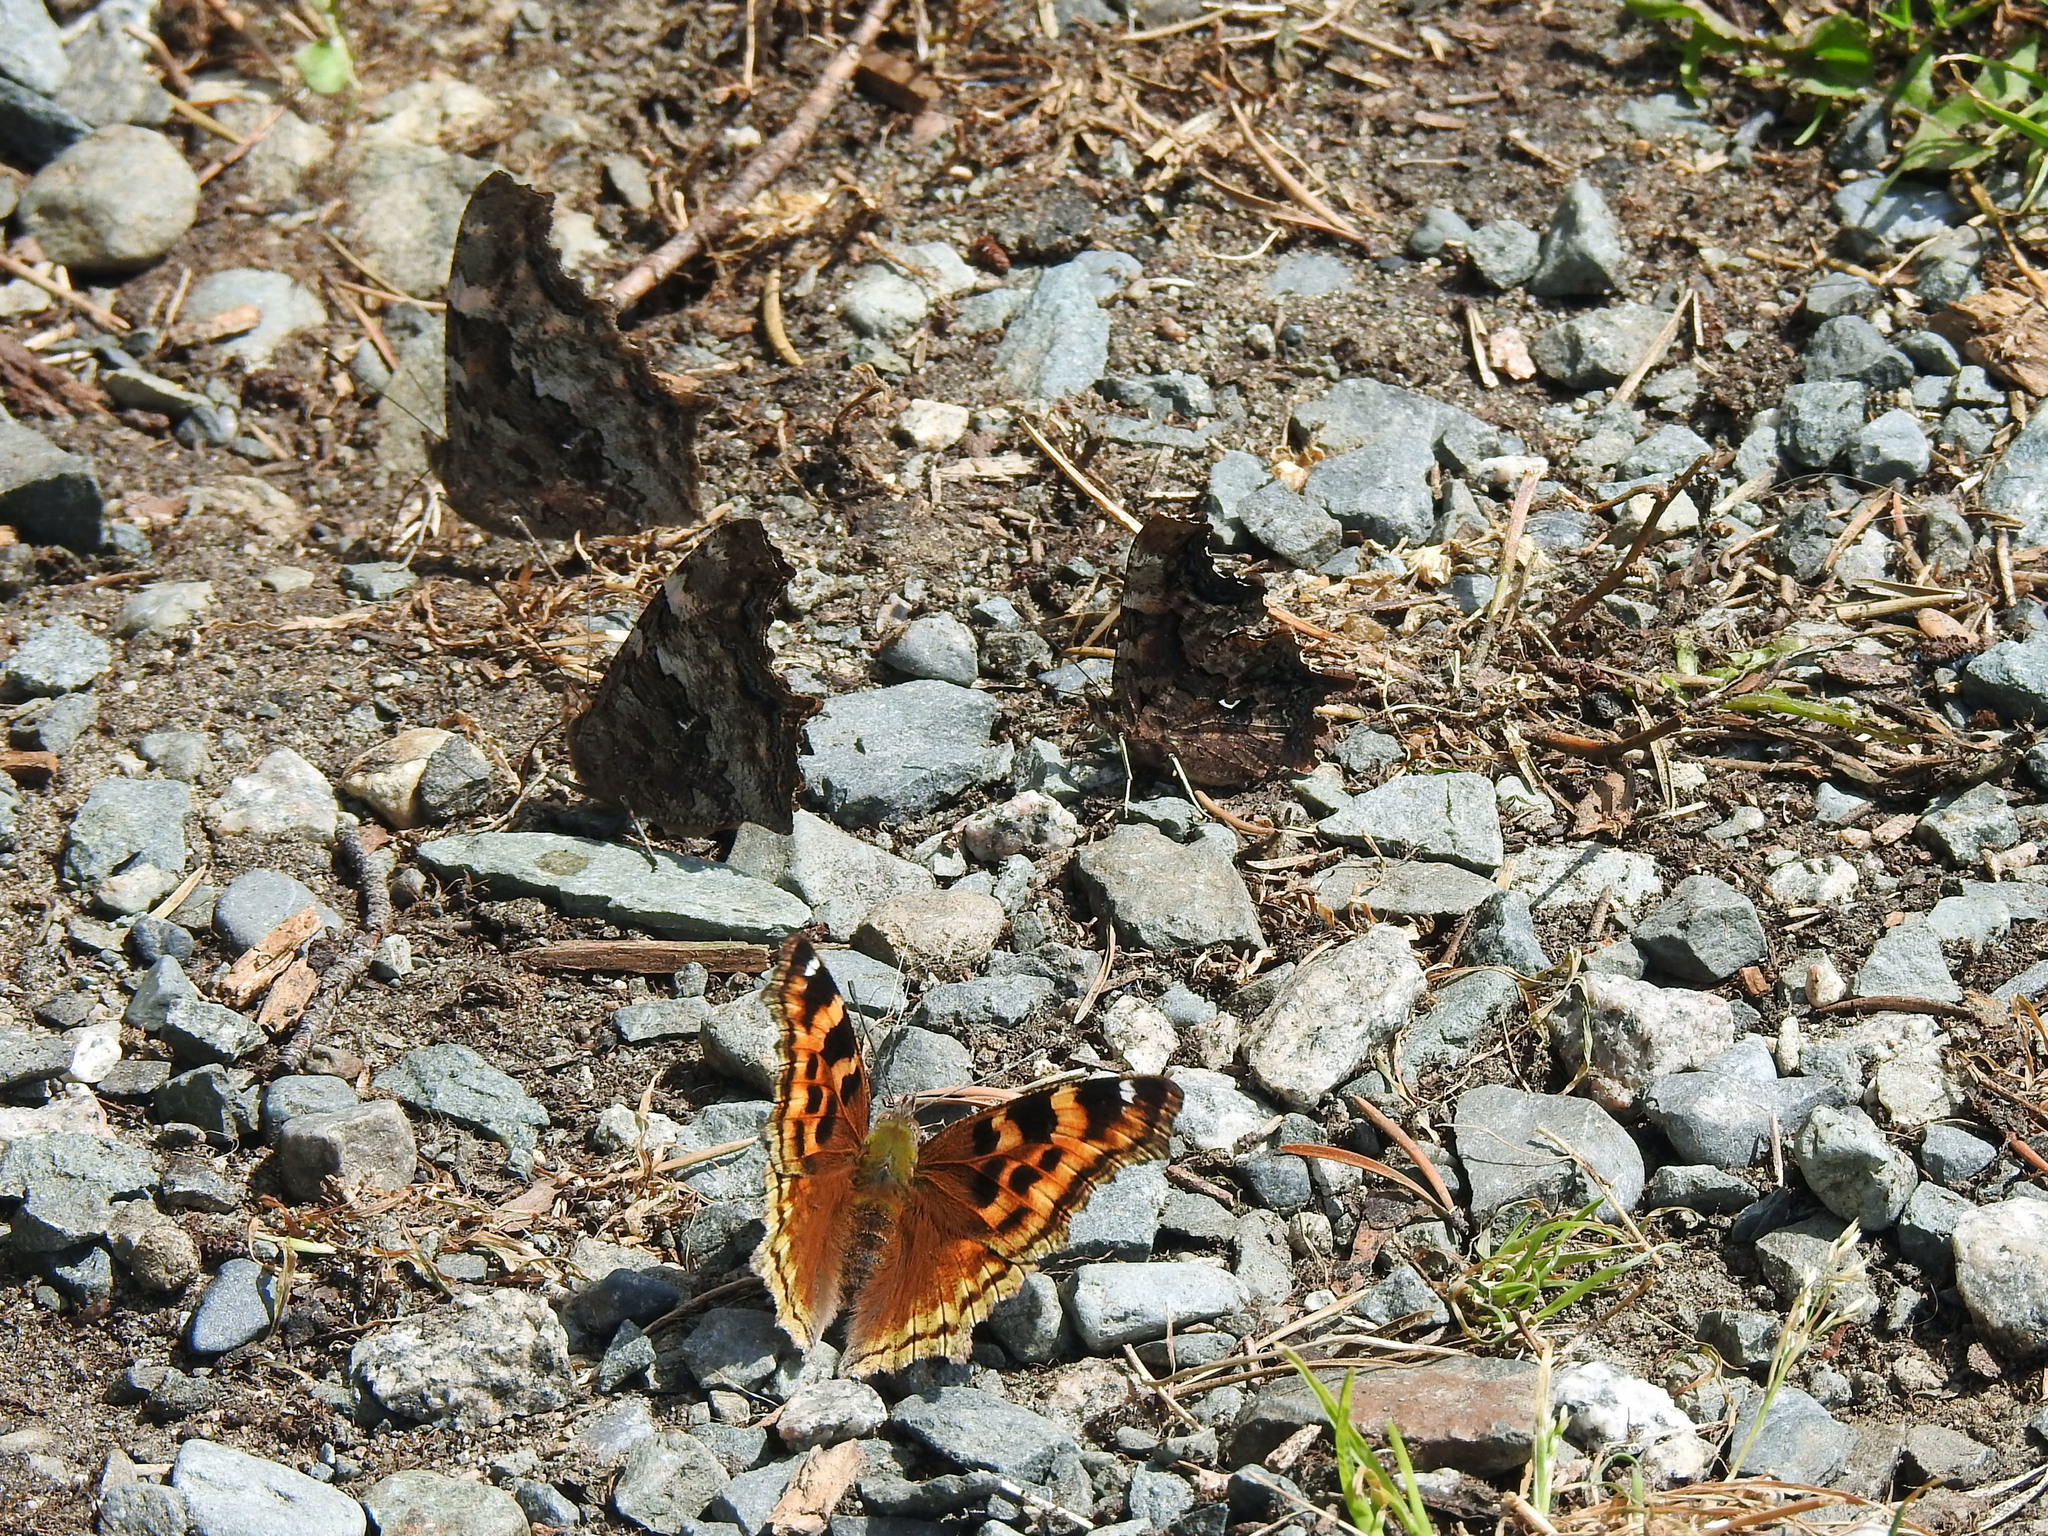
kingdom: Animalia
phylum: Arthropoda
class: Insecta
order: Lepidoptera
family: Nymphalidae
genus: Polygonia
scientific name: Polygonia vaualbum
